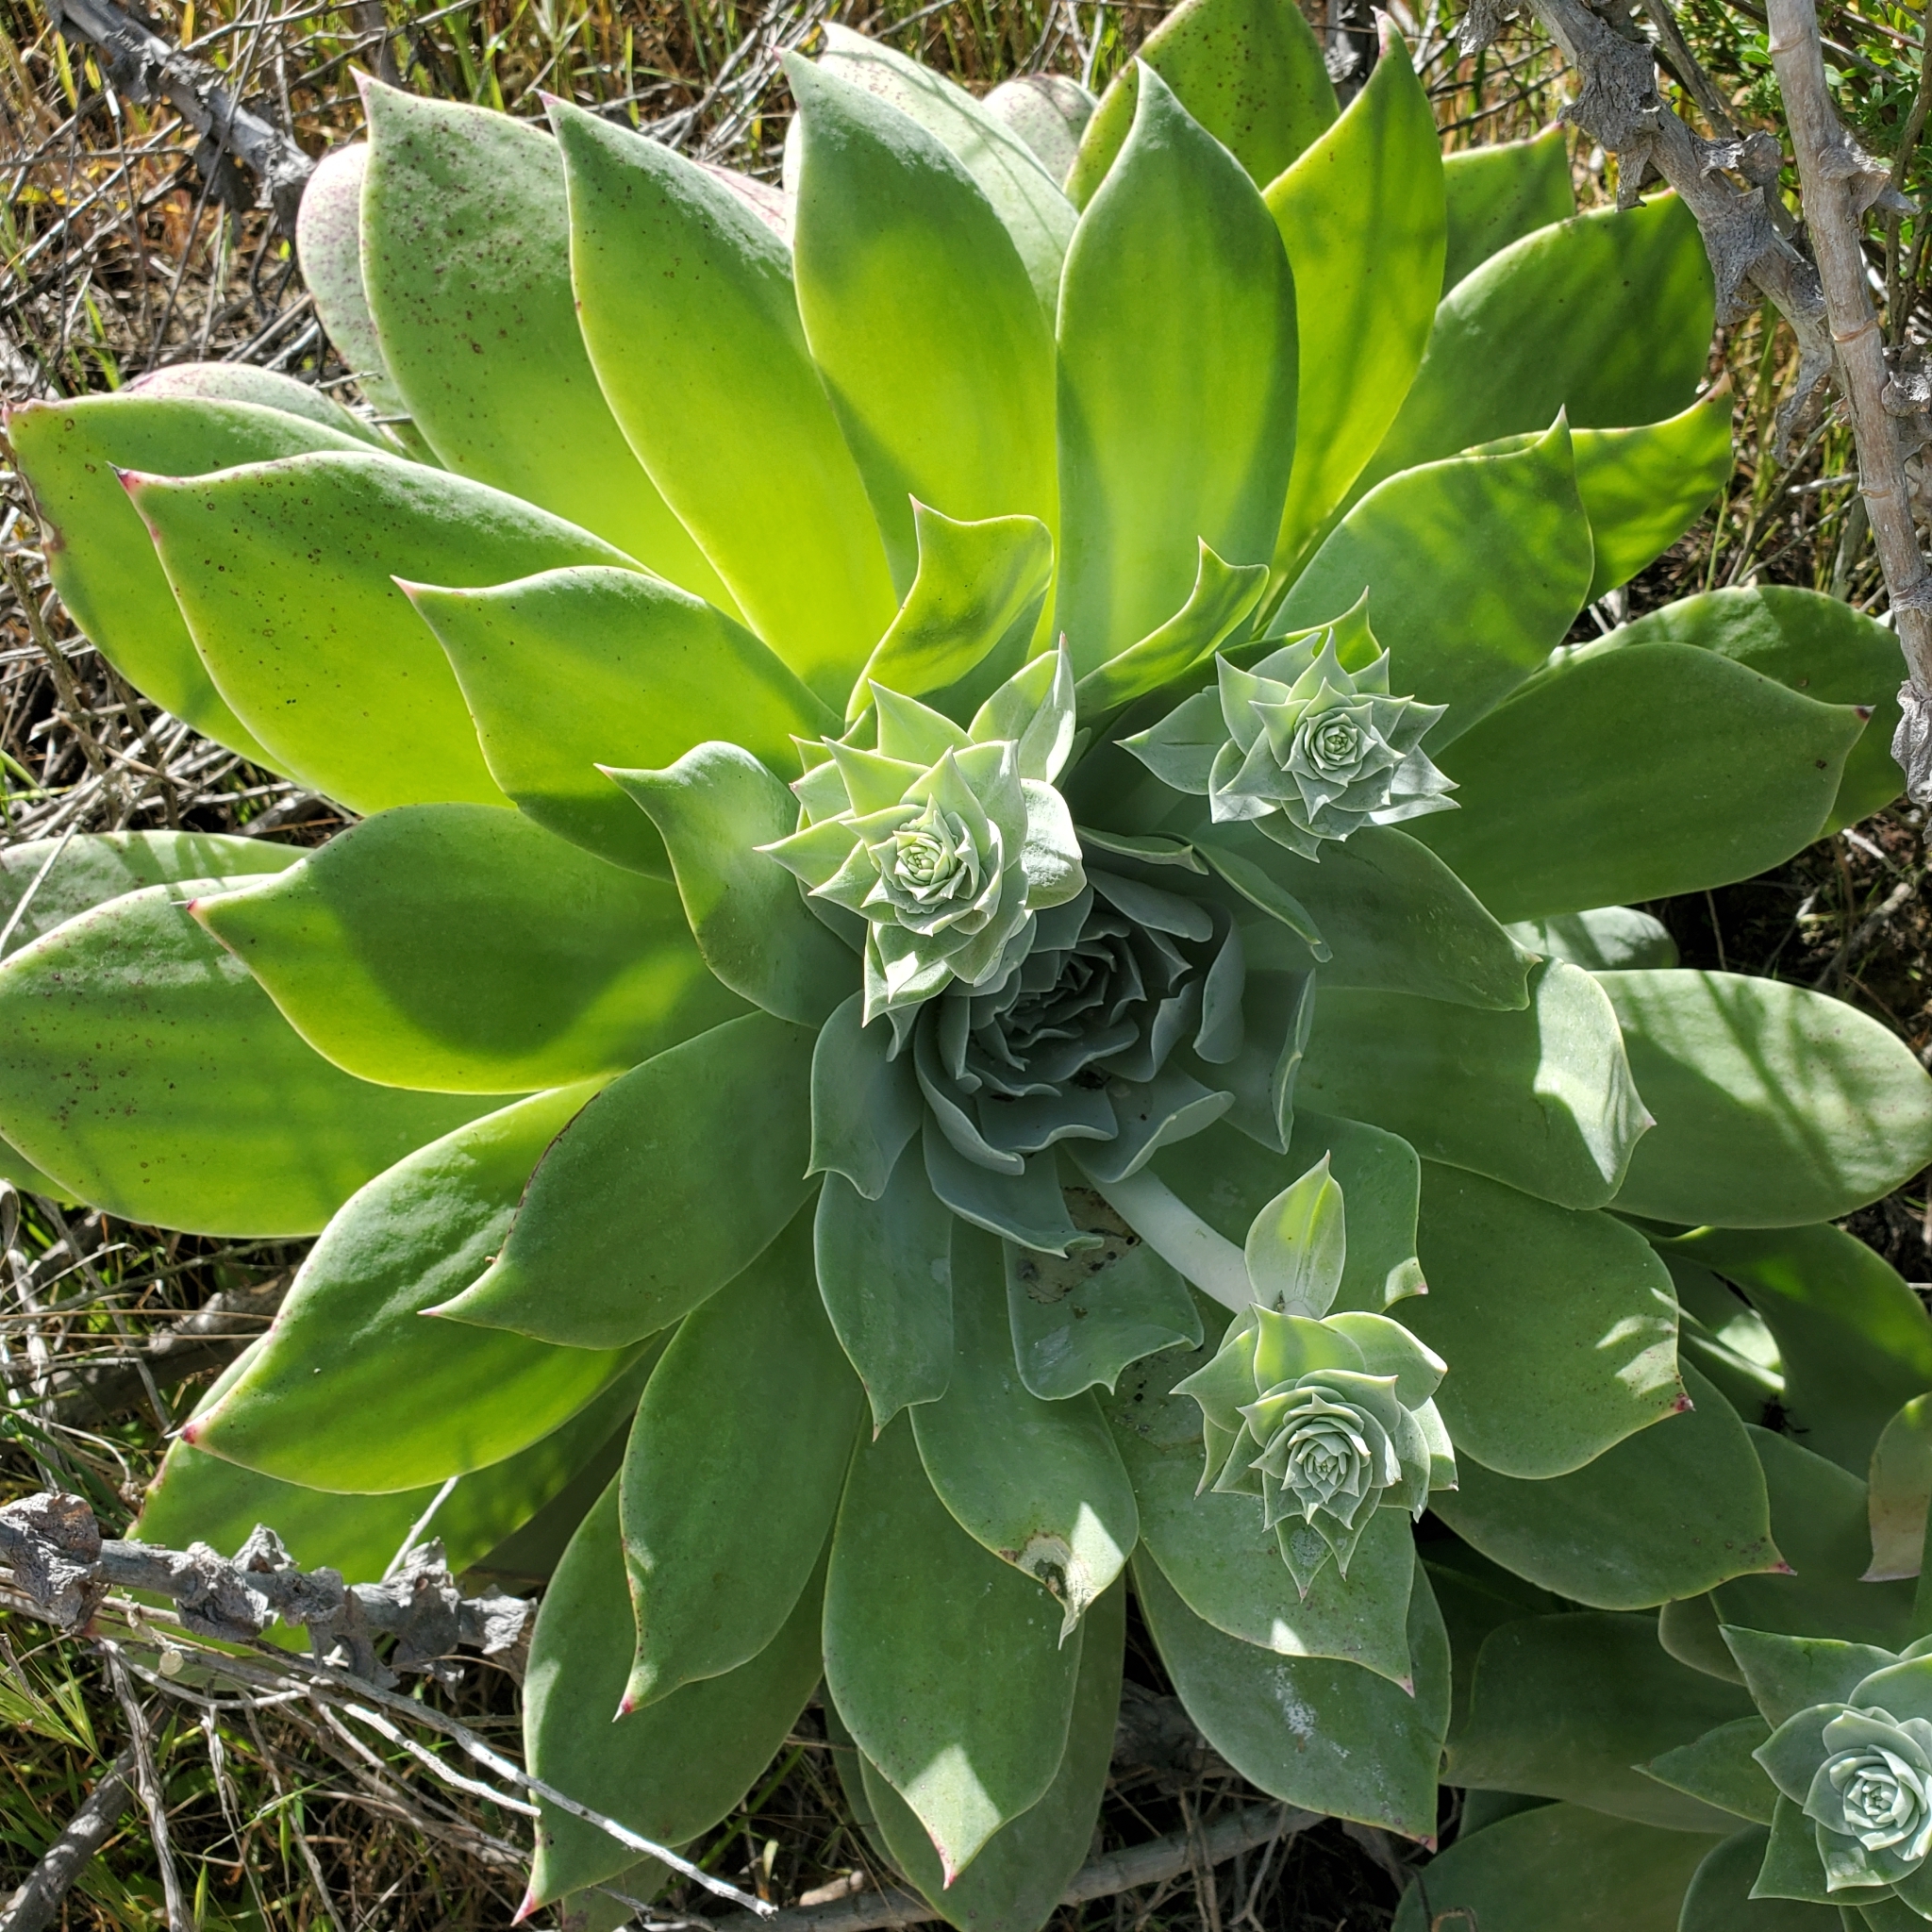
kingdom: Plantae
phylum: Tracheophyta
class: Magnoliopsida
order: Saxifragales
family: Crassulaceae
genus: Dudleya
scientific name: Dudleya pulverulenta
